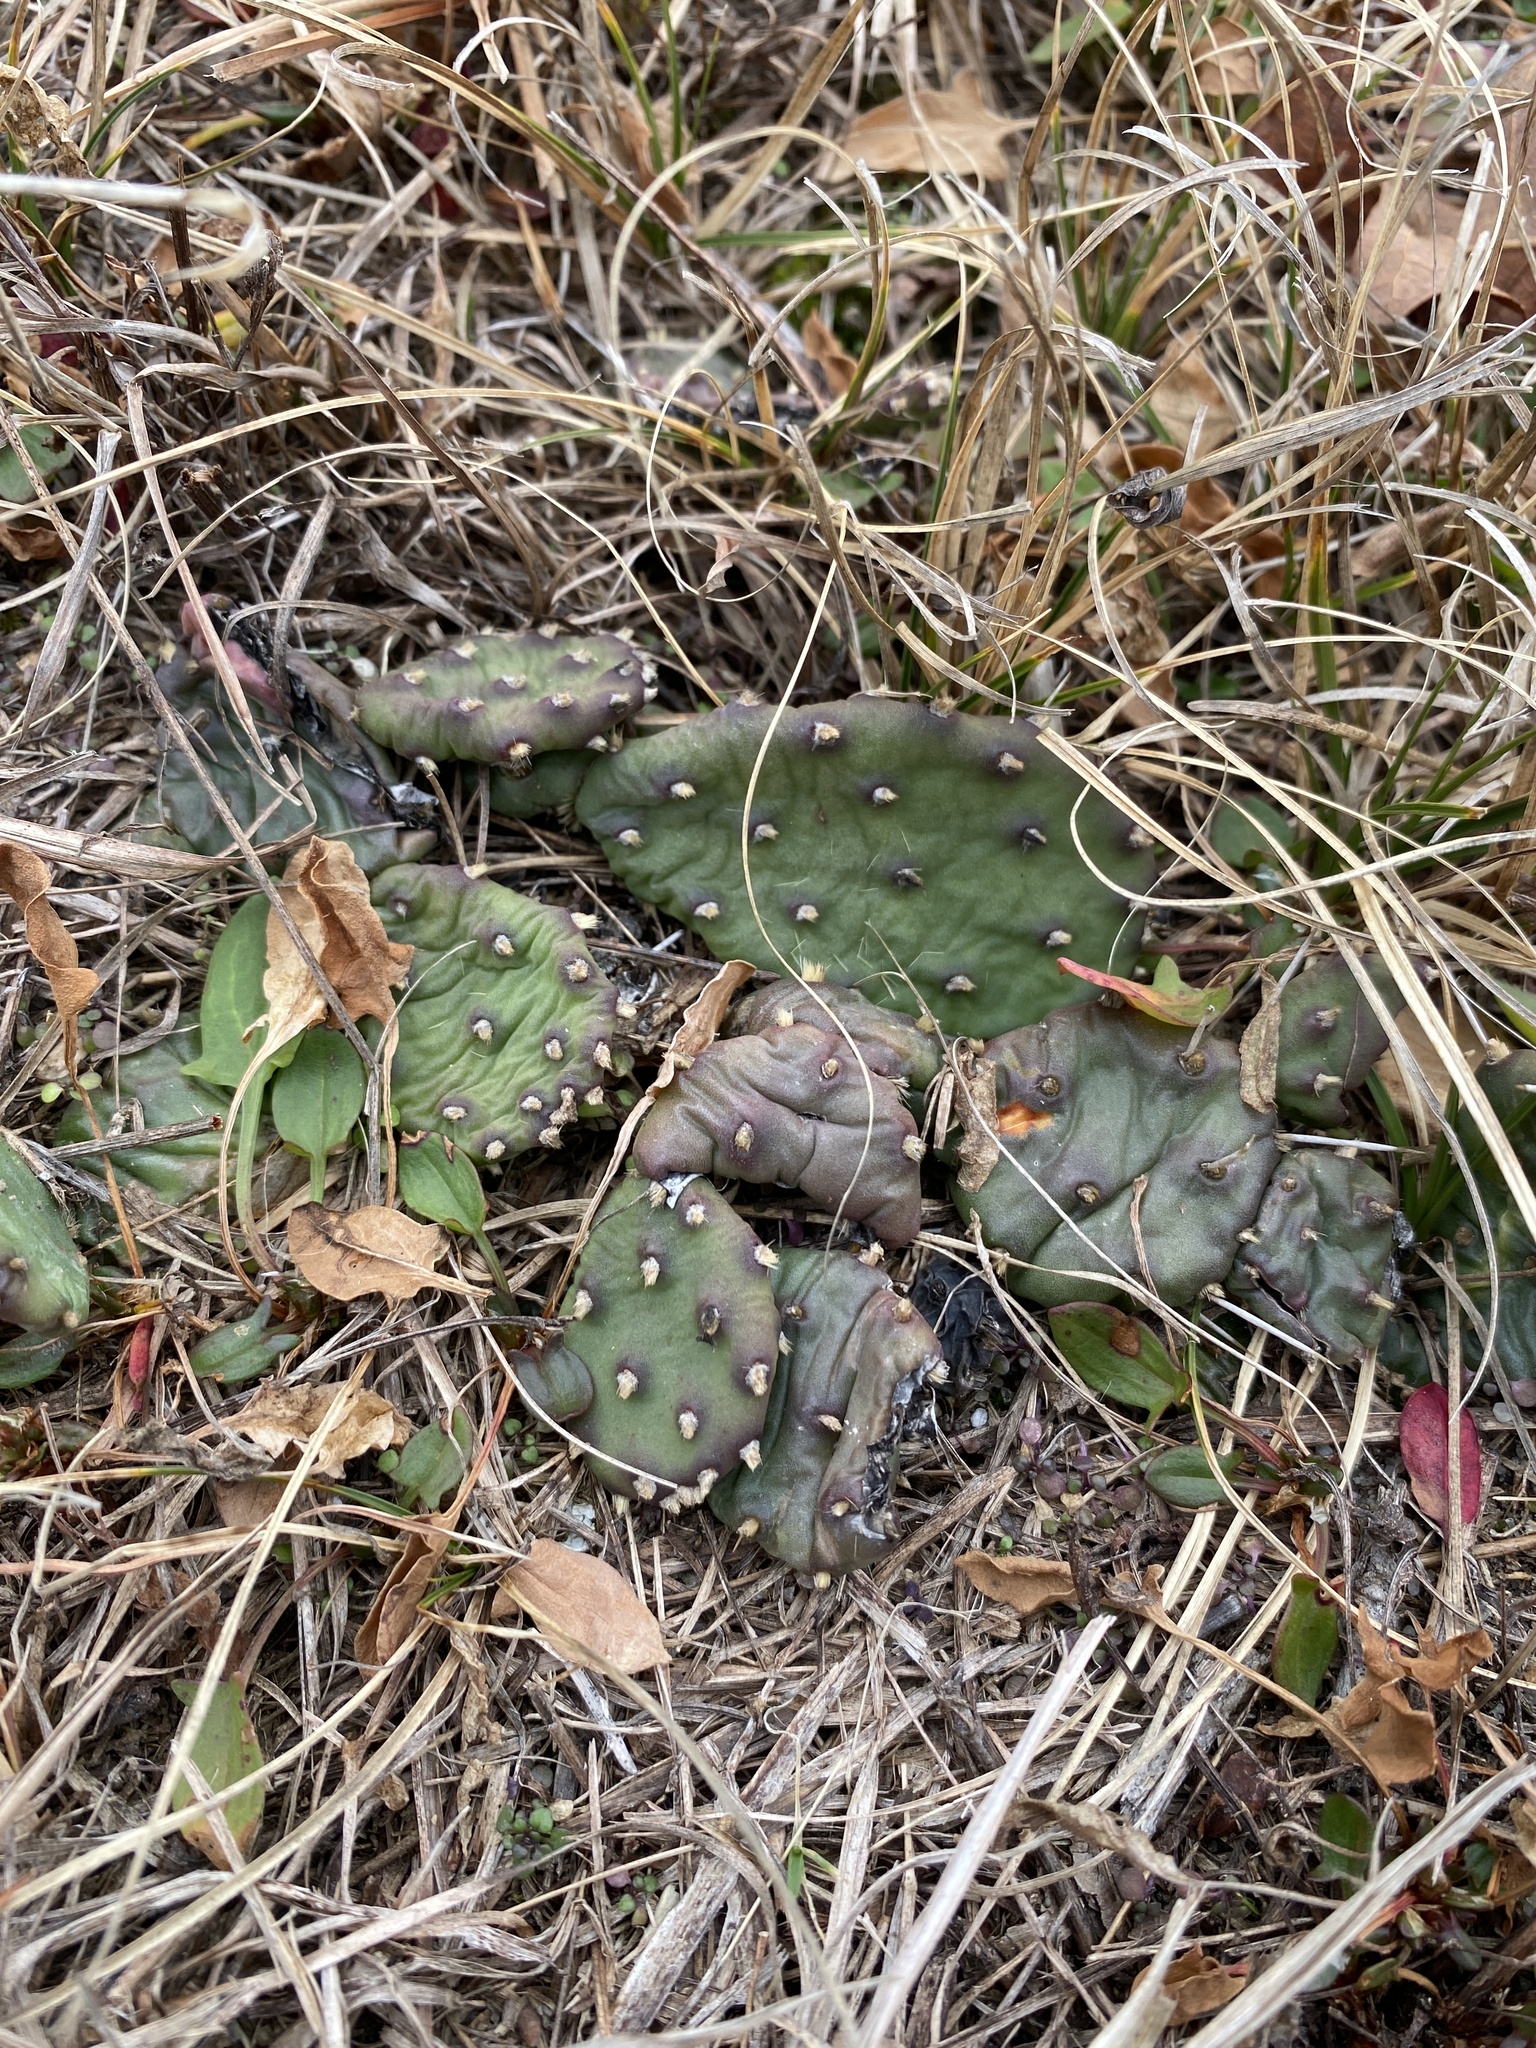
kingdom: Plantae
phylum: Tracheophyta
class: Magnoliopsida
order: Caryophyllales
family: Cactaceae
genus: Opuntia
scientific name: Opuntia humifusa
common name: Eastern prickly-pear
